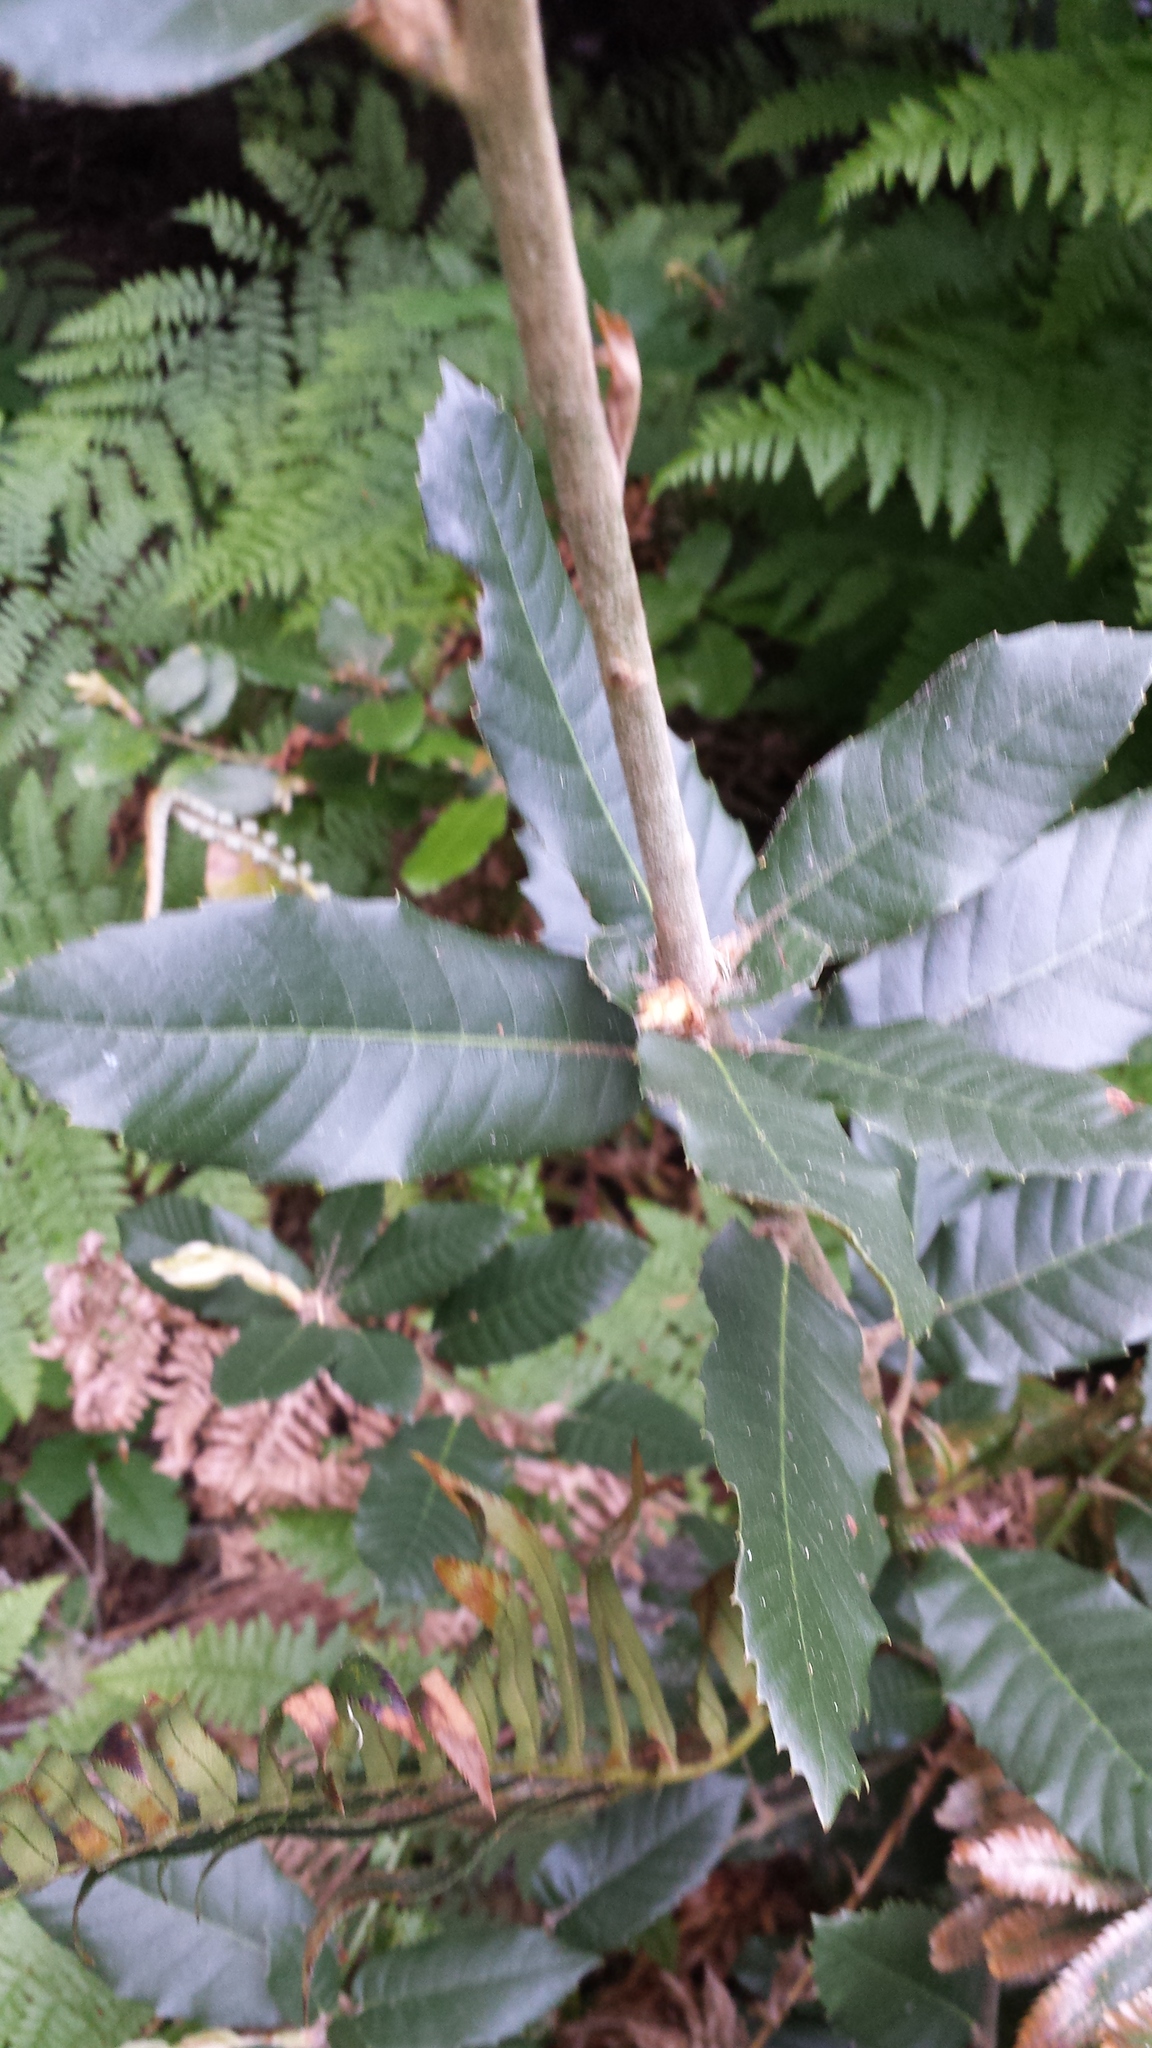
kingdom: Plantae
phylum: Tracheophyta
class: Magnoliopsida
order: Fagales
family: Fagaceae
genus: Notholithocarpus
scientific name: Notholithocarpus densiflorus
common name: Tan bark oak
